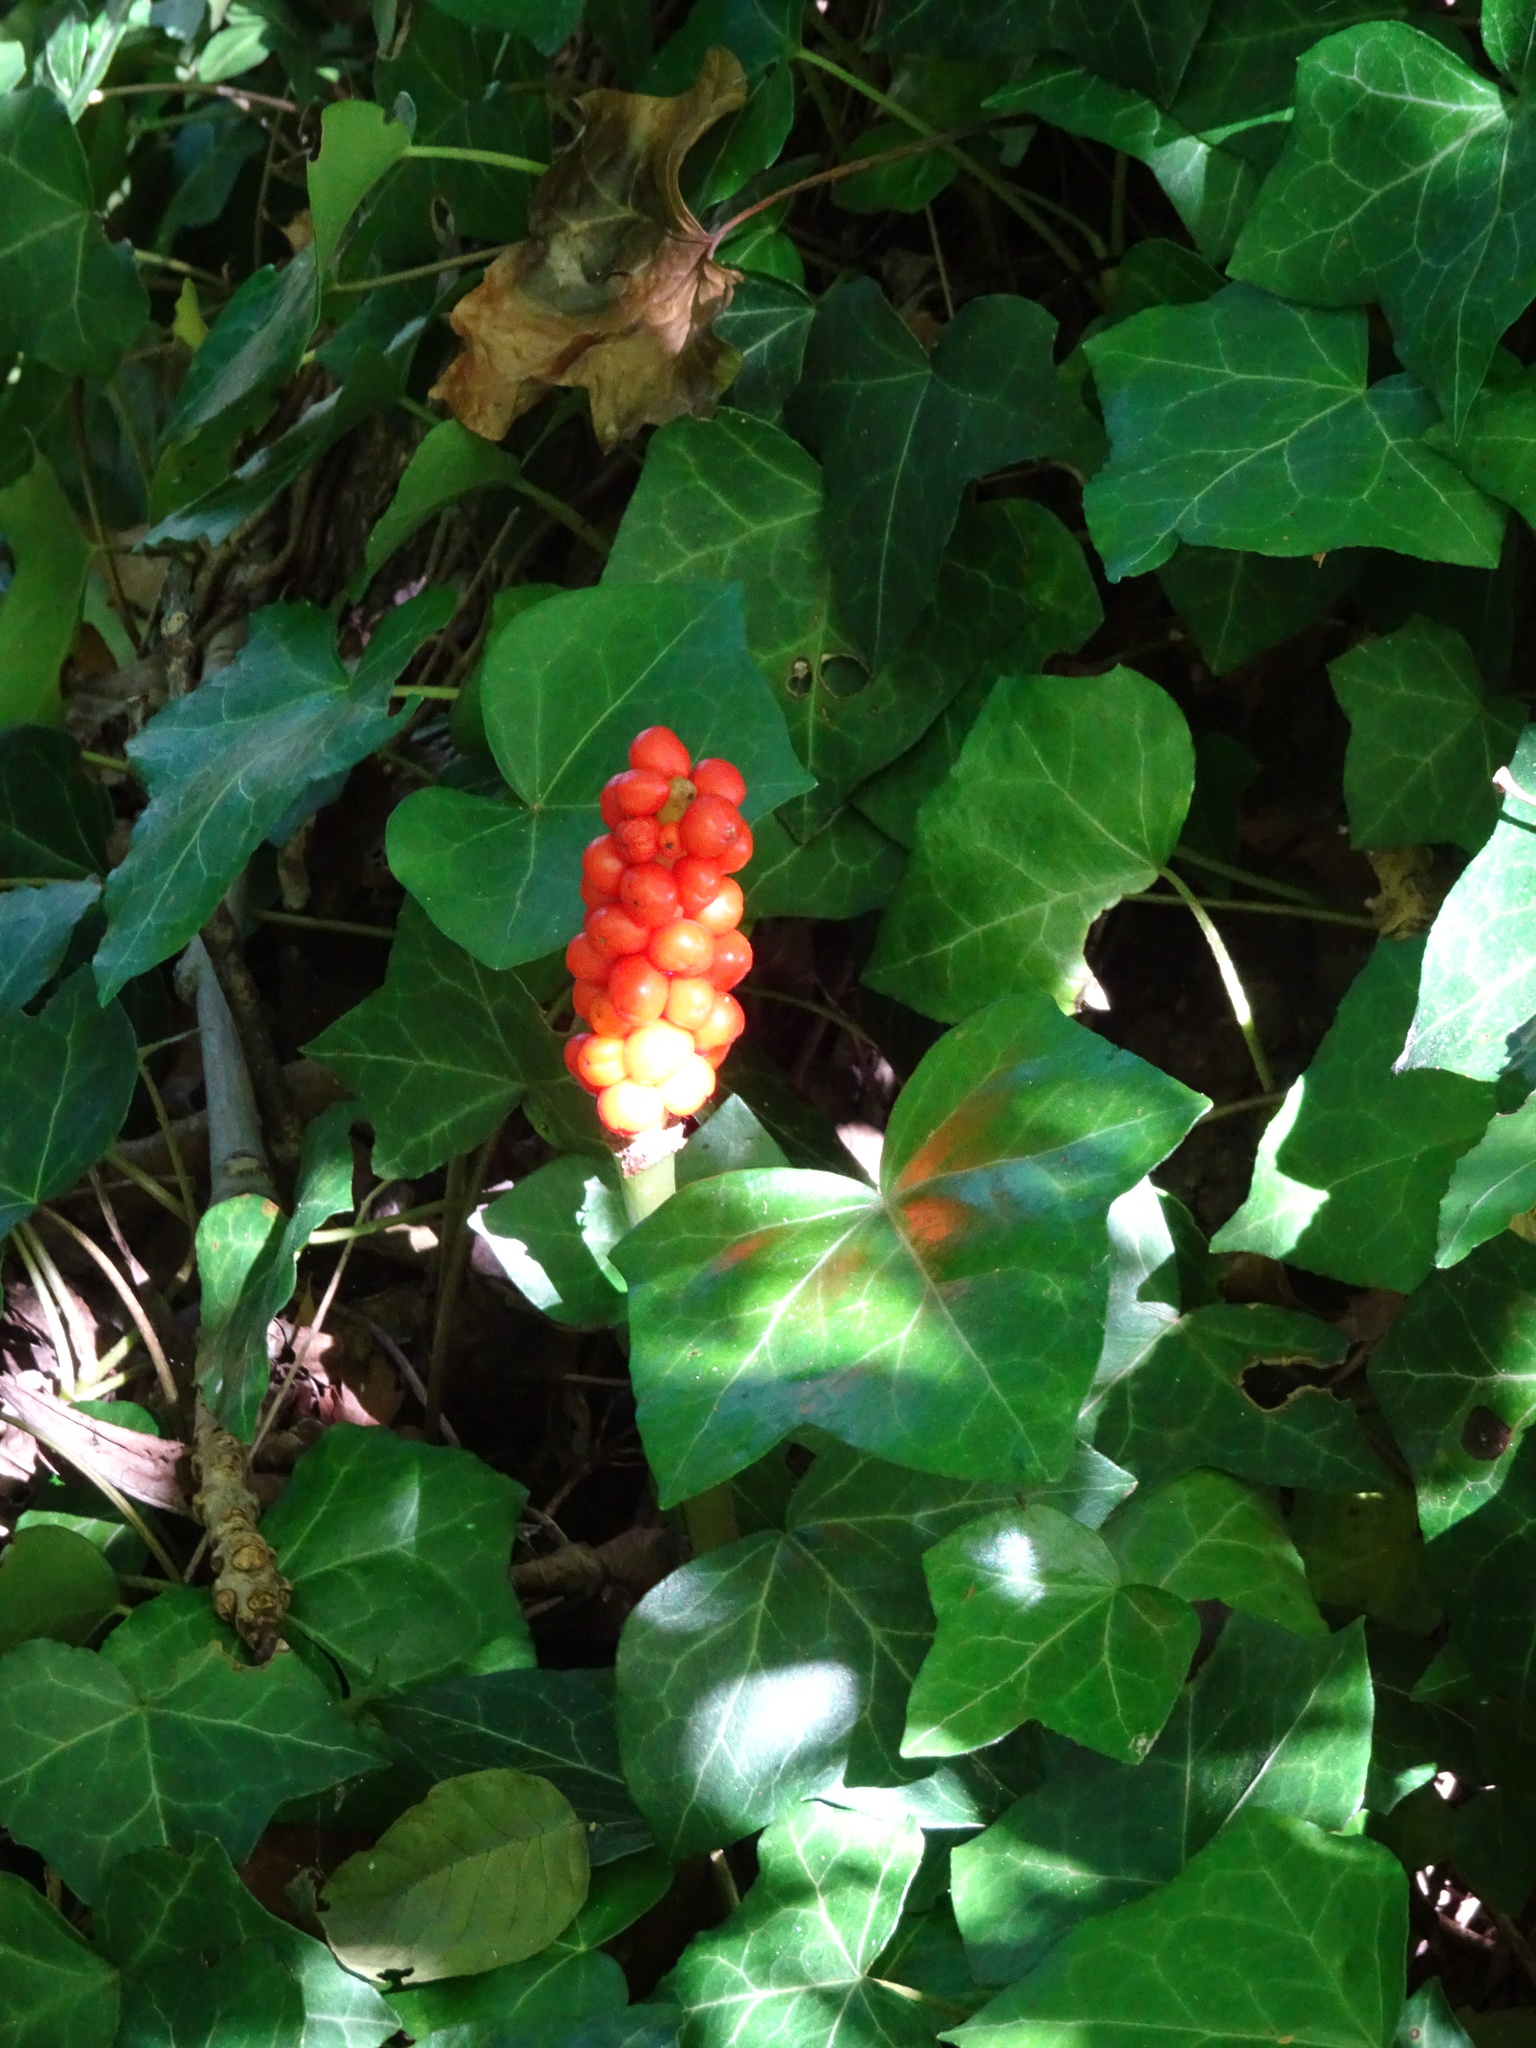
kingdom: Plantae
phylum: Tracheophyta
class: Liliopsida
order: Alismatales
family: Araceae
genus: Arum
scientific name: Arum maculatum
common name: Lords-and-ladies
